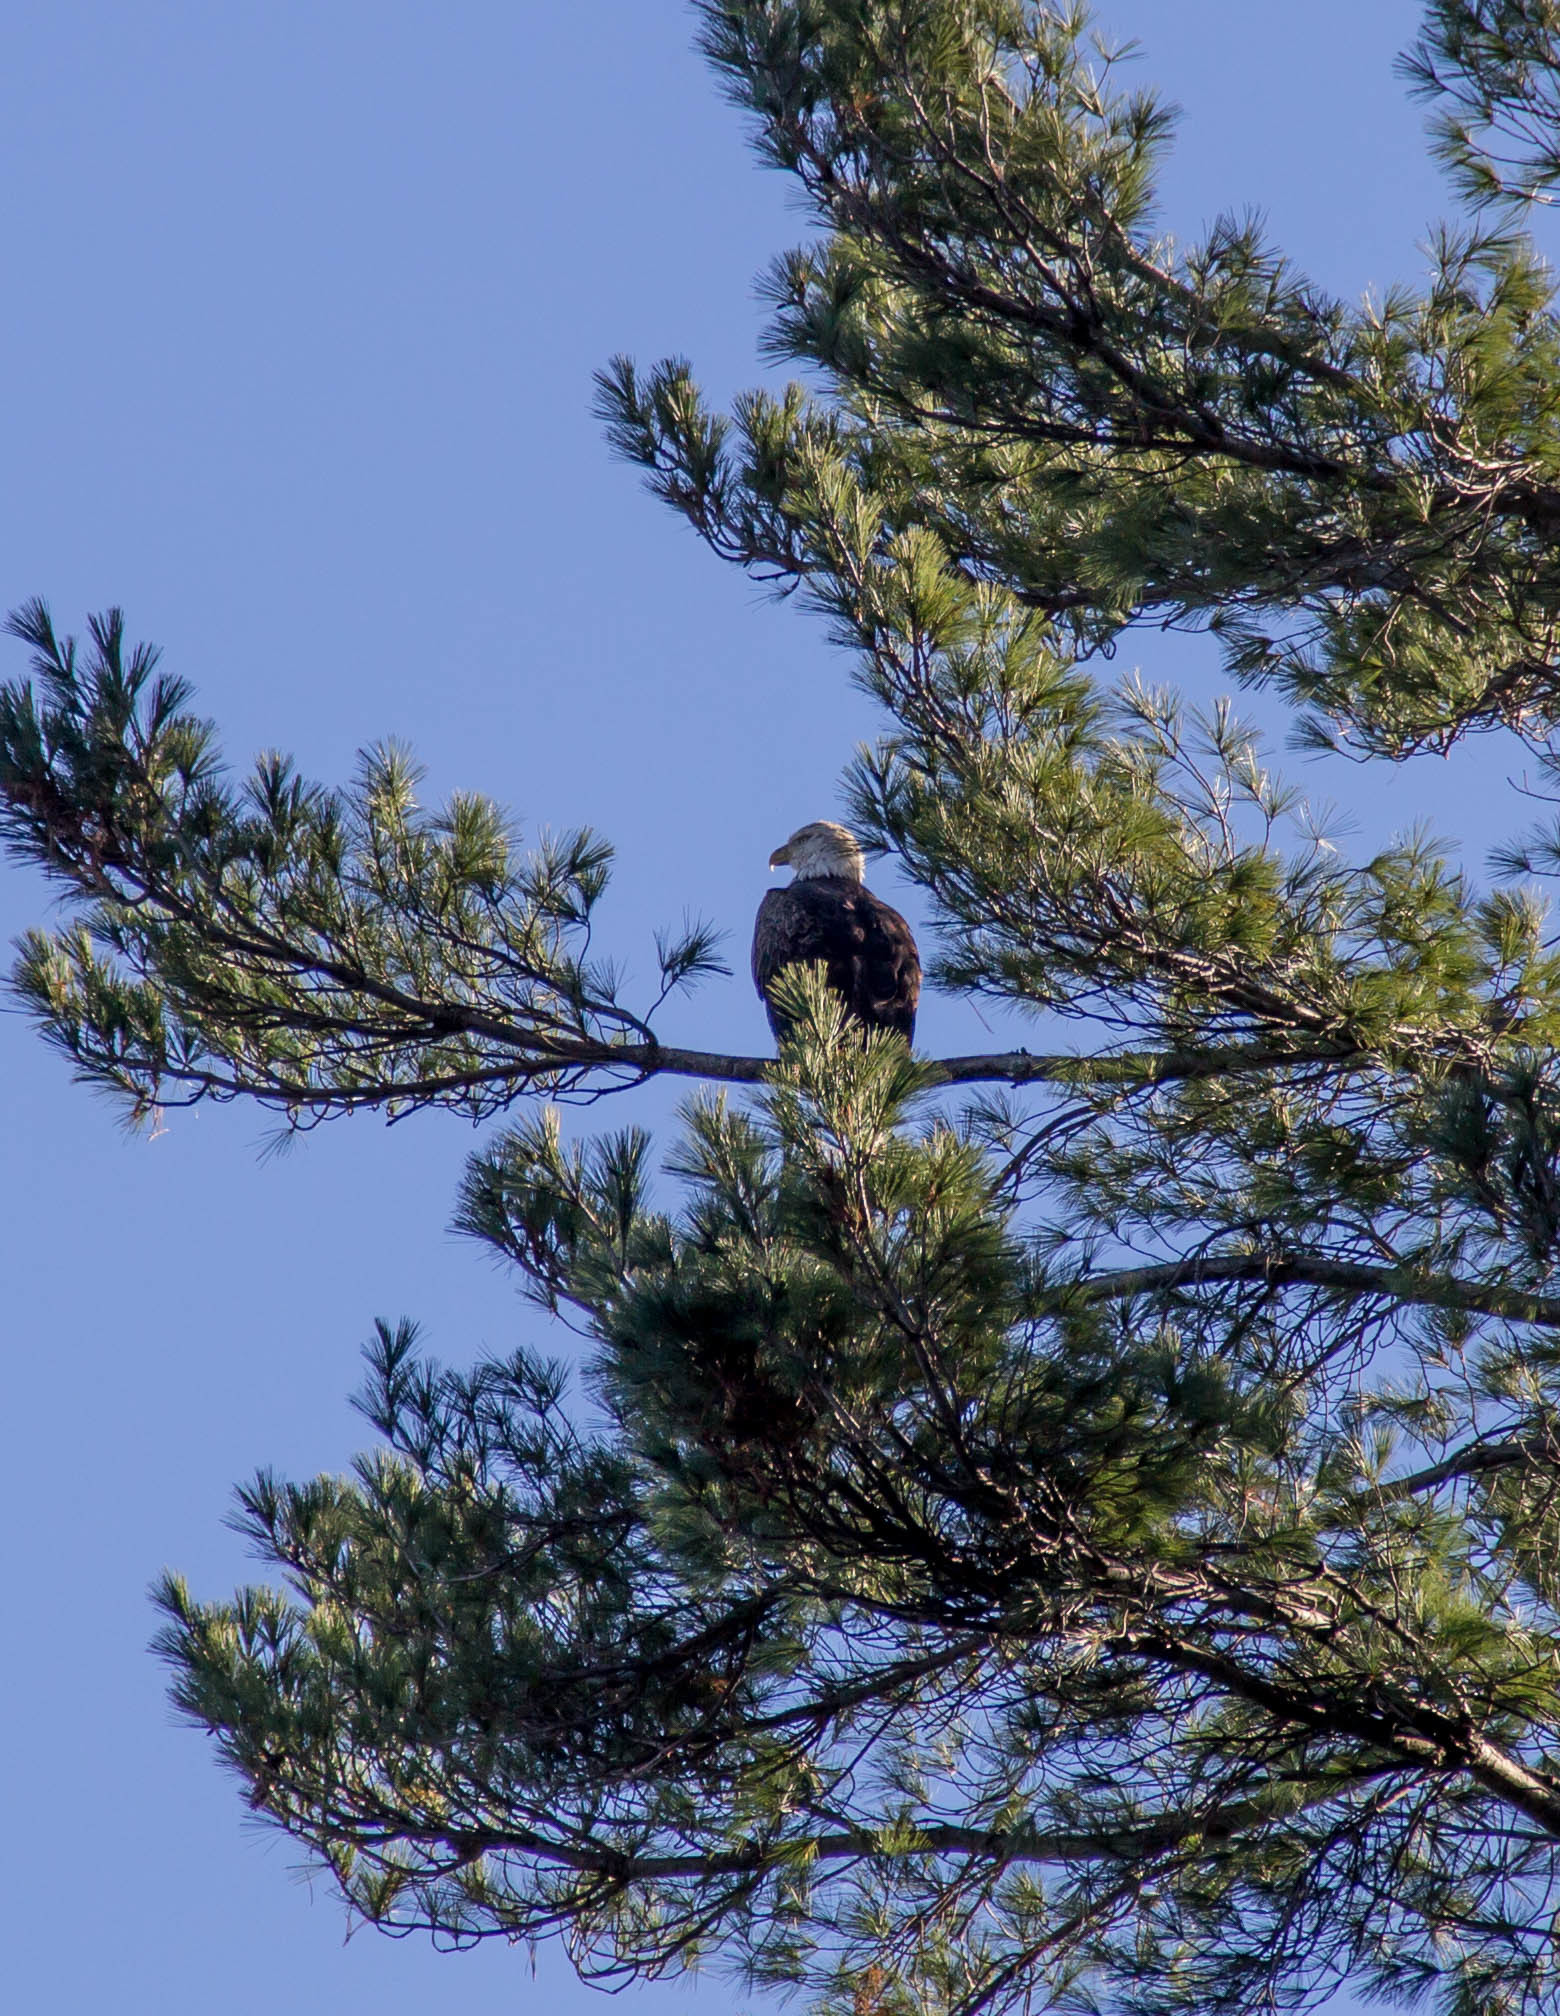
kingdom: Animalia
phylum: Chordata
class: Aves
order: Accipitriformes
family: Accipitridae
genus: Haliaeetus
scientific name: Haliaeetus leucocephalus
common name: Bald eagle
